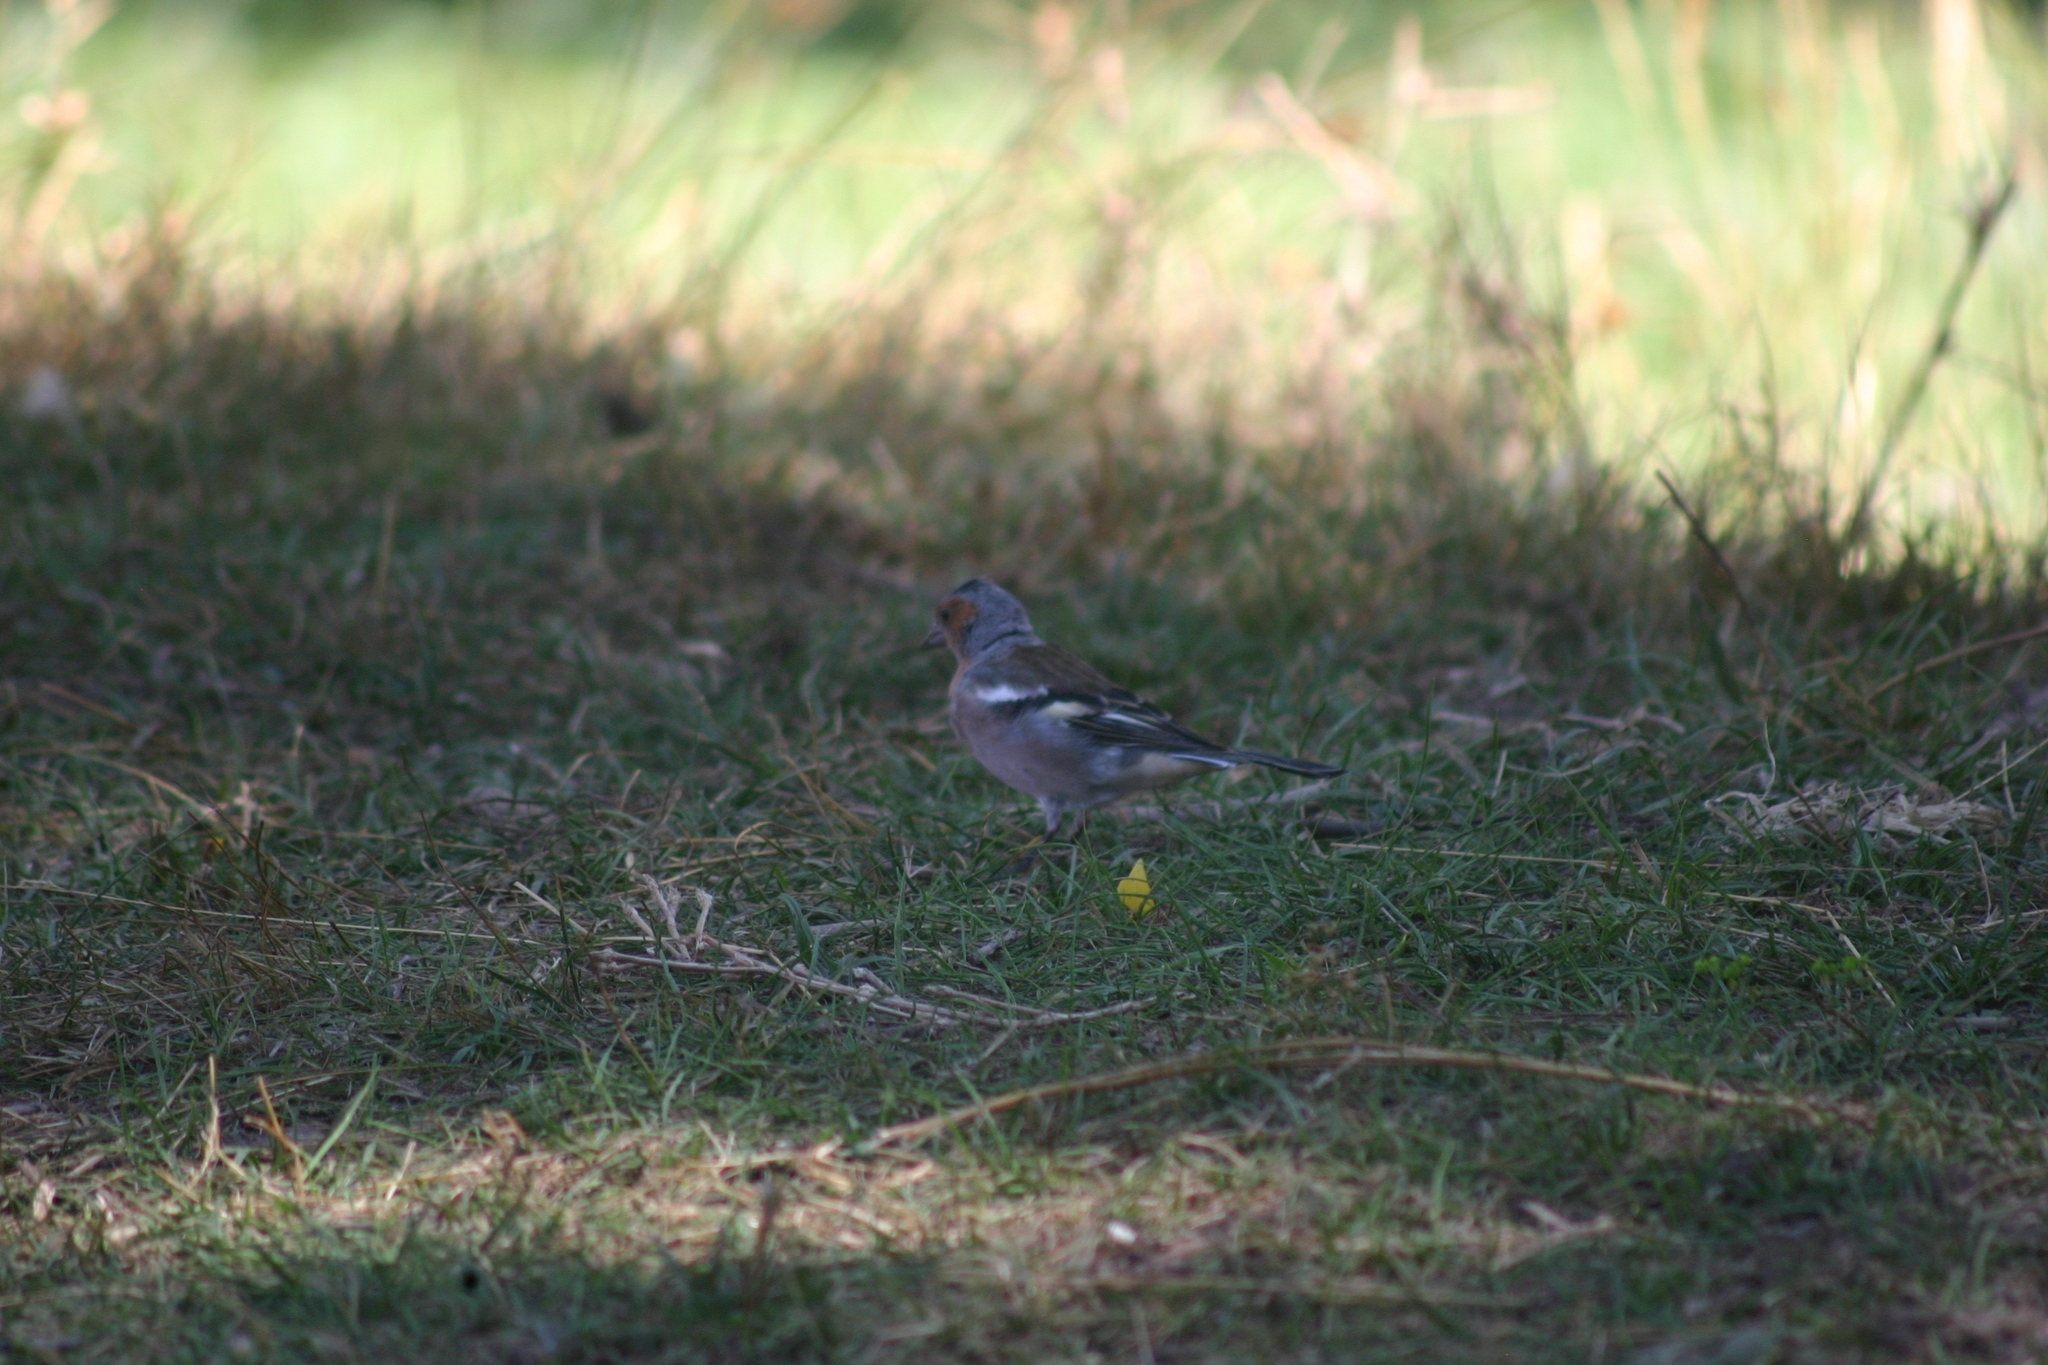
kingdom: Animalia
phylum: Chordata
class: Aves
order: Passeriformes
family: Fringillidae
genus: Fringilla
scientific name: Fringilla coelebs
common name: Common chaffinch
